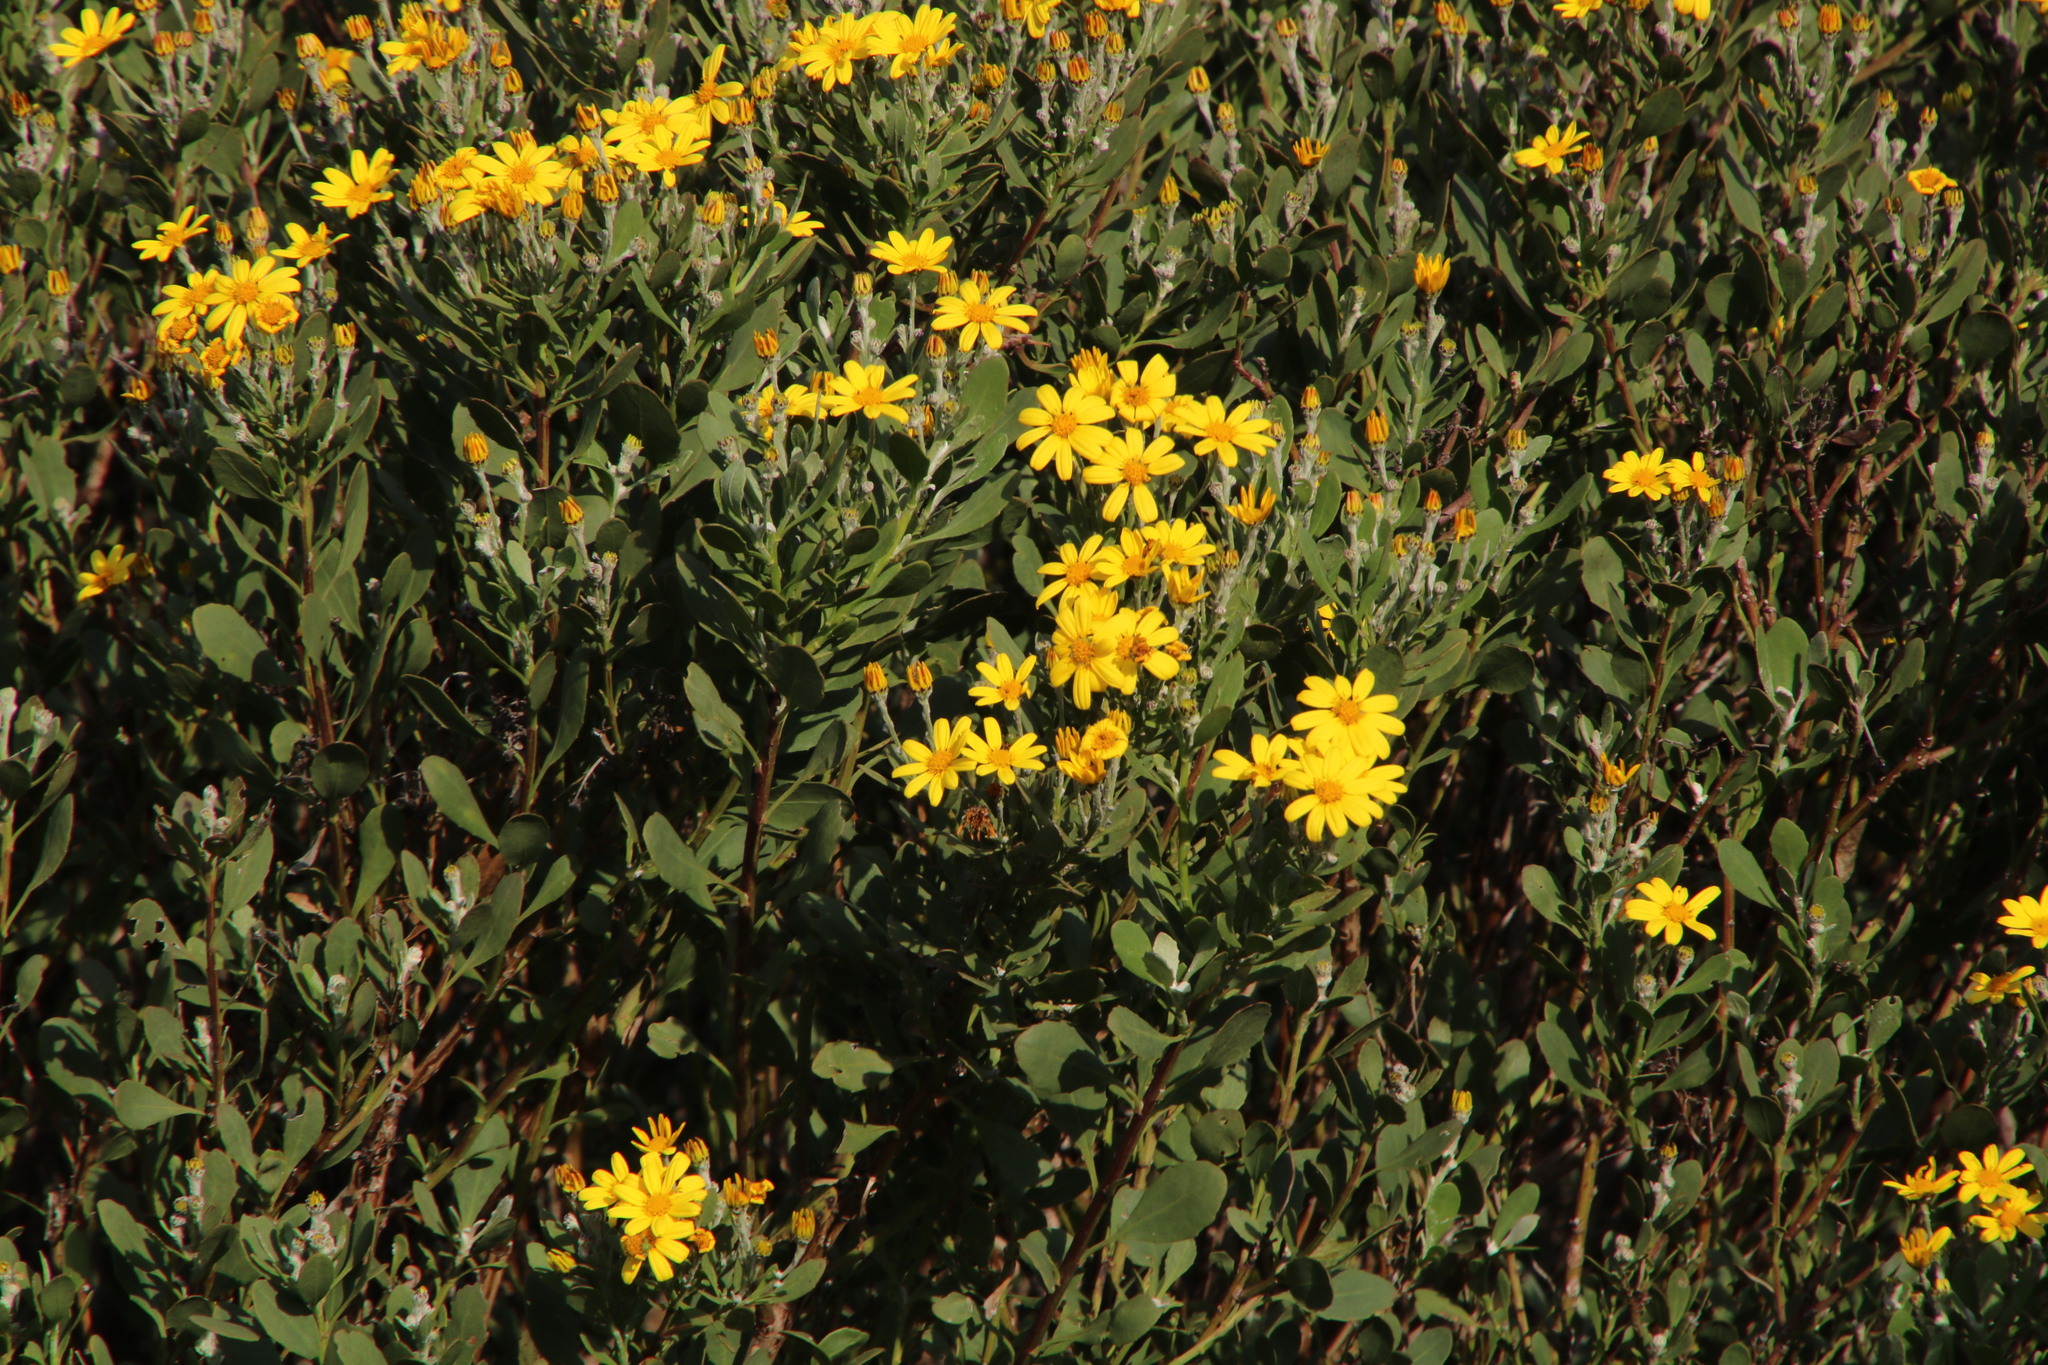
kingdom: Plantae
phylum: Tracheophyta
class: Magnoliopsida
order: Asterales
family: Asteraceae
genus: Osteospermum
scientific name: Osteospermum moniliferum
